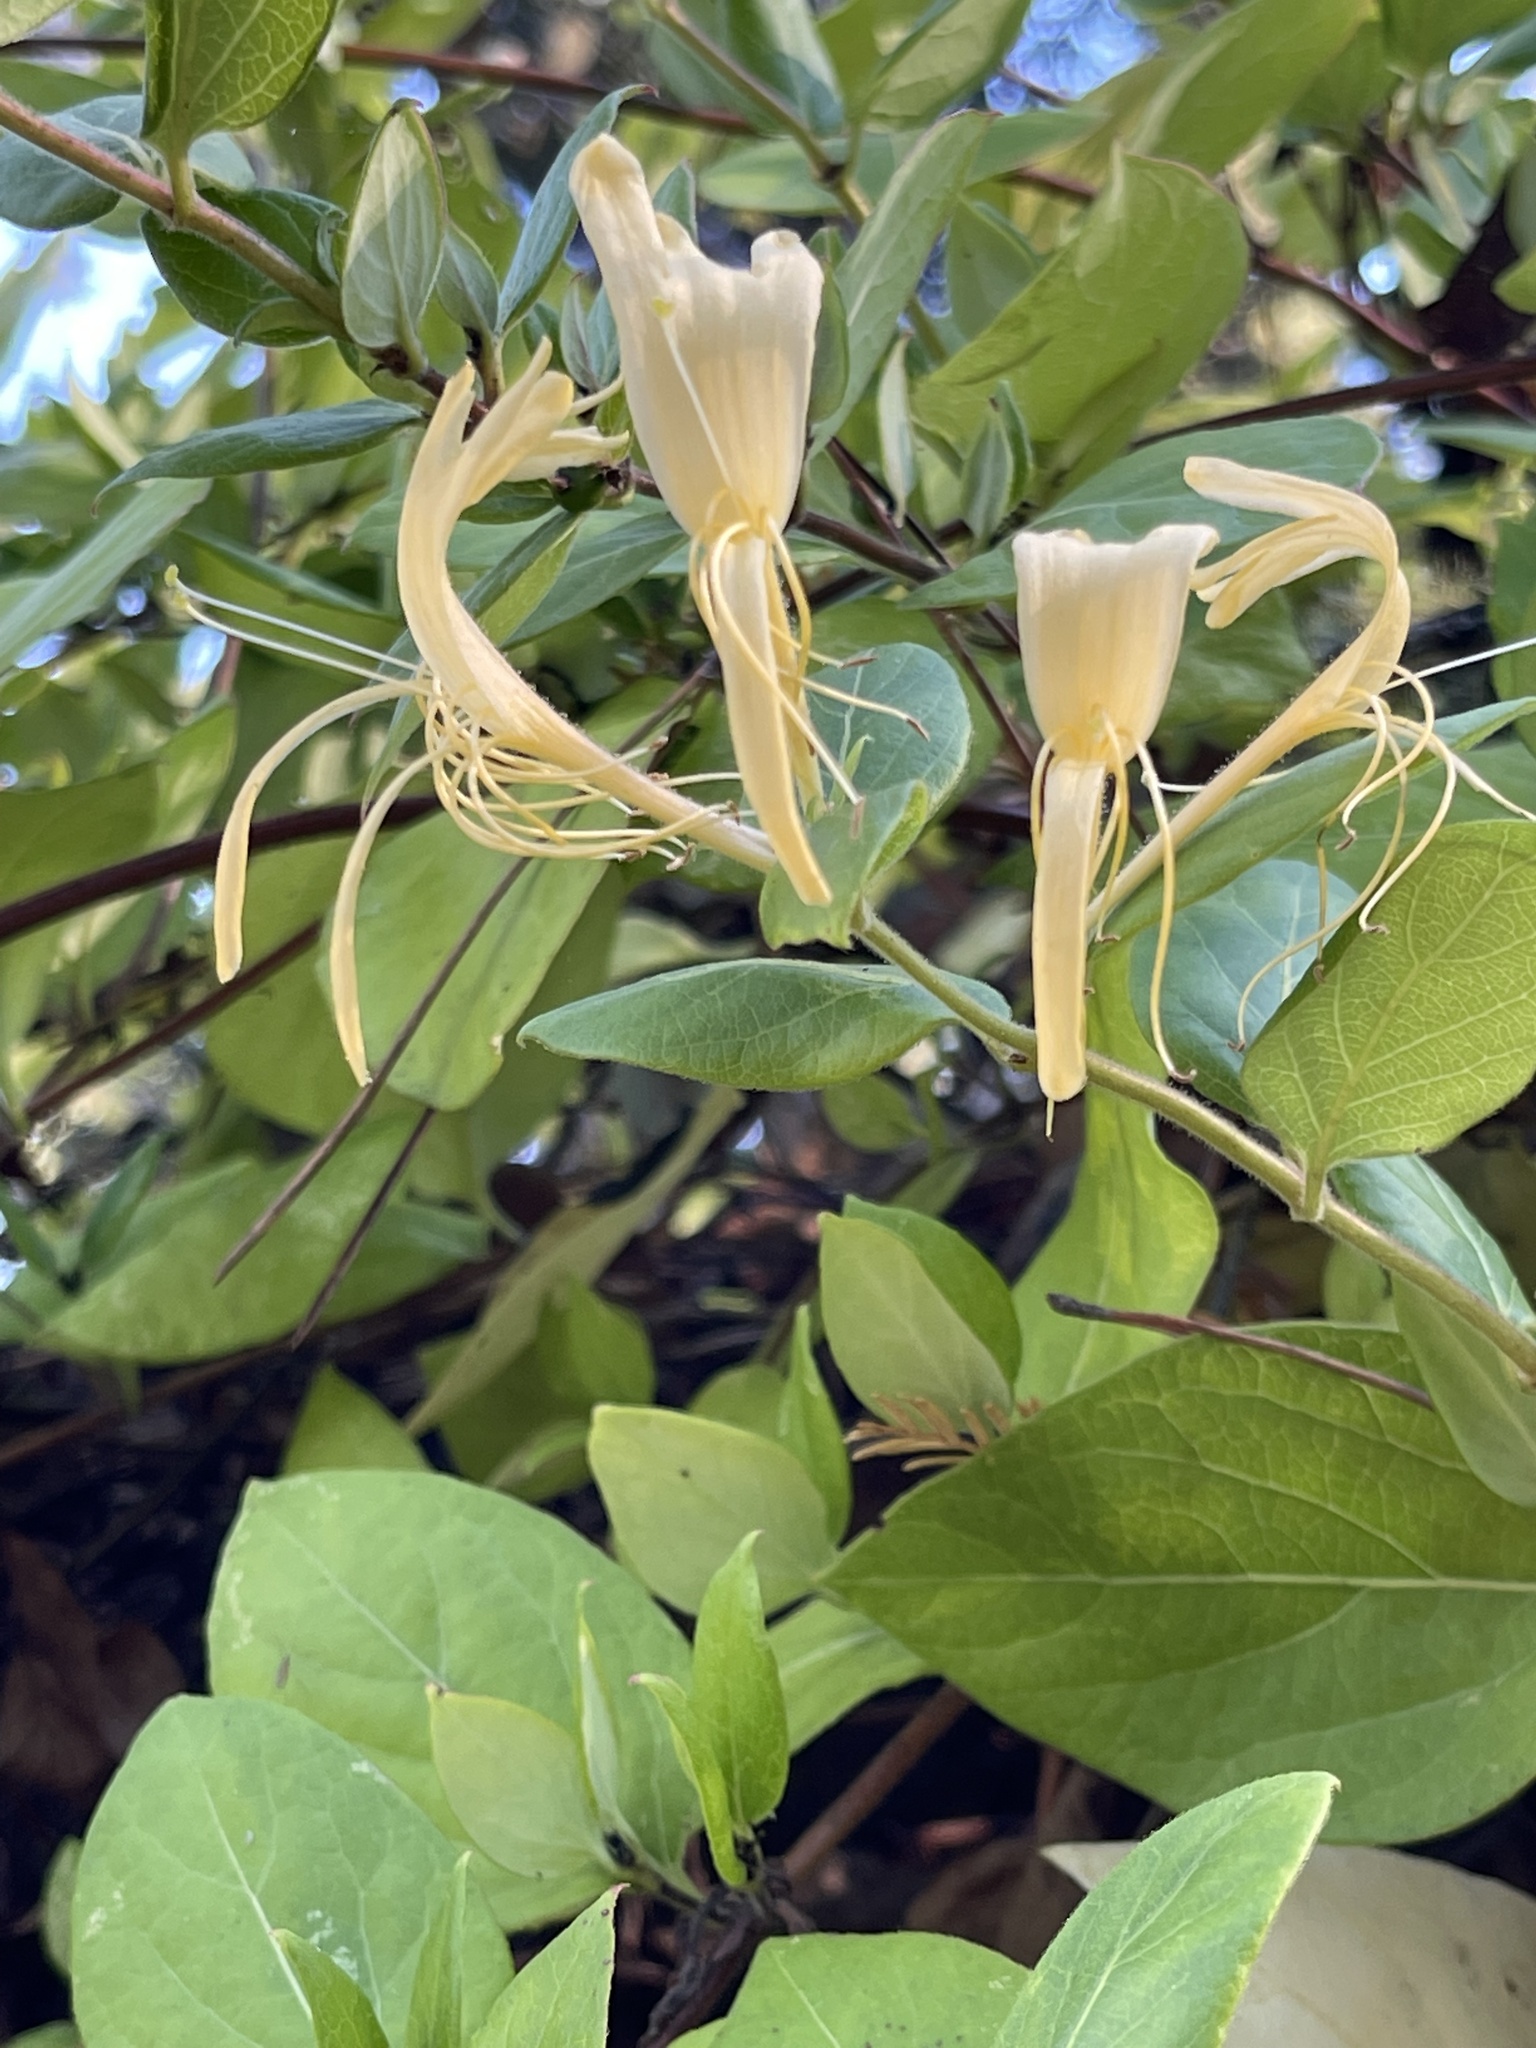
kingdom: Plantae
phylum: Tracheophyta
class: Magnoliopsida
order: Dipsacales
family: Caprifoliaceae
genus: Lonicera
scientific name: Lonicera japonica
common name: Japanese honeysuckle
